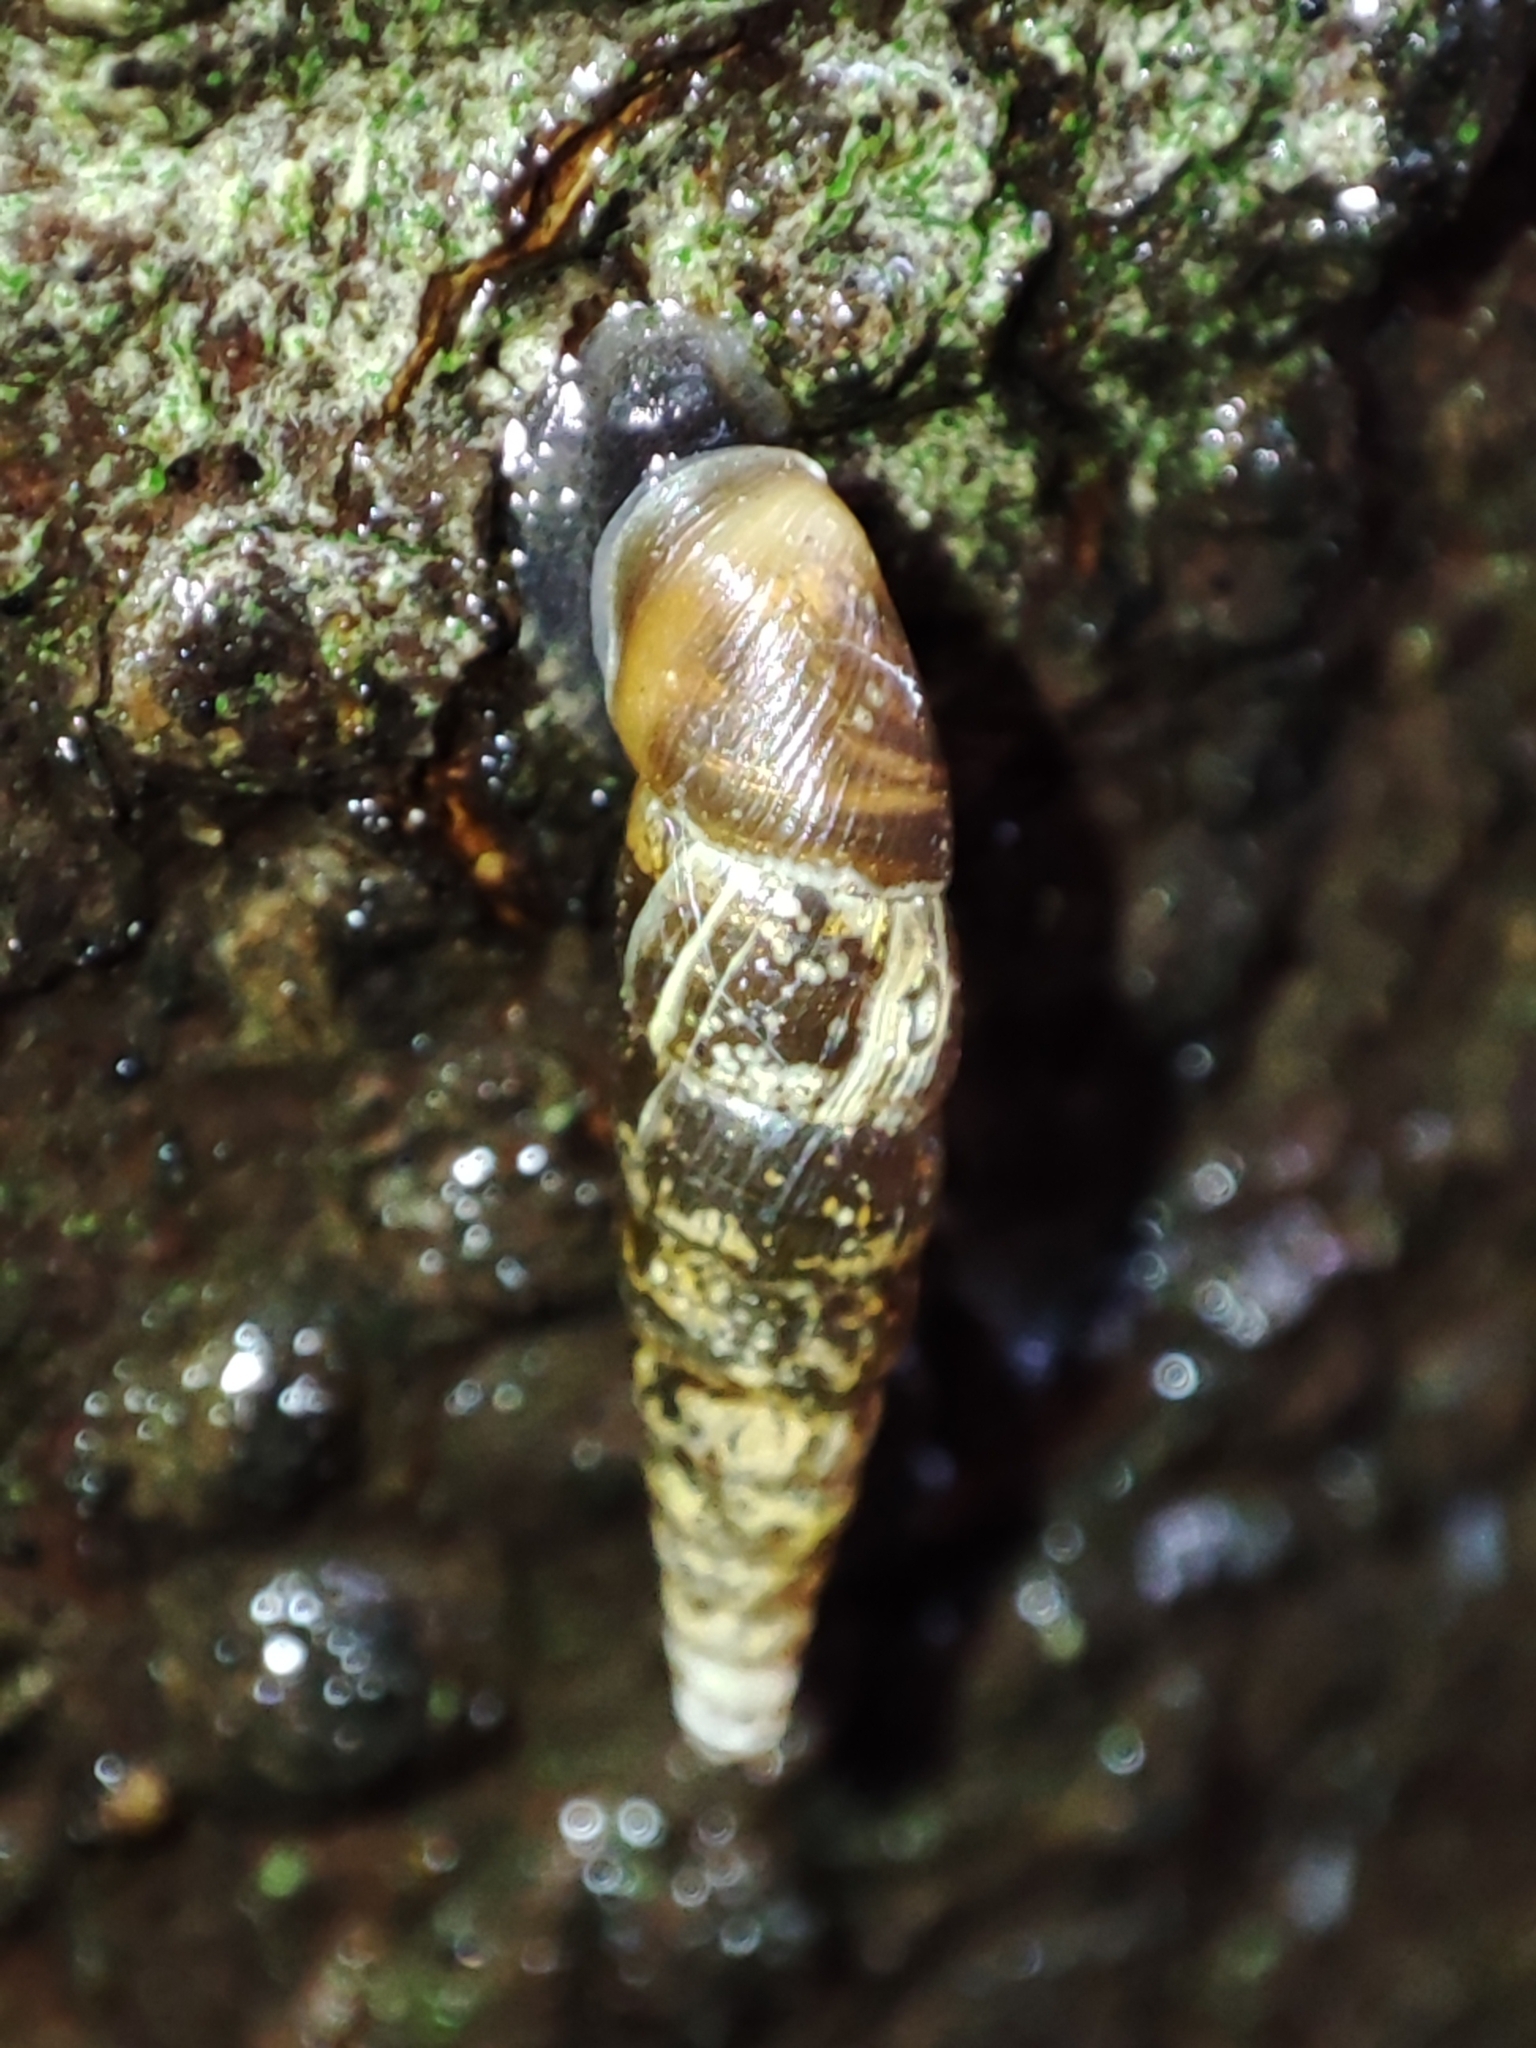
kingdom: Animalia
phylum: Mollusca
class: Gastropoda
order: Stylommatophora
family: Clausiliidae
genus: Cochlodina
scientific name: Cochlodina orthostoma
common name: Straightmouth door snail
